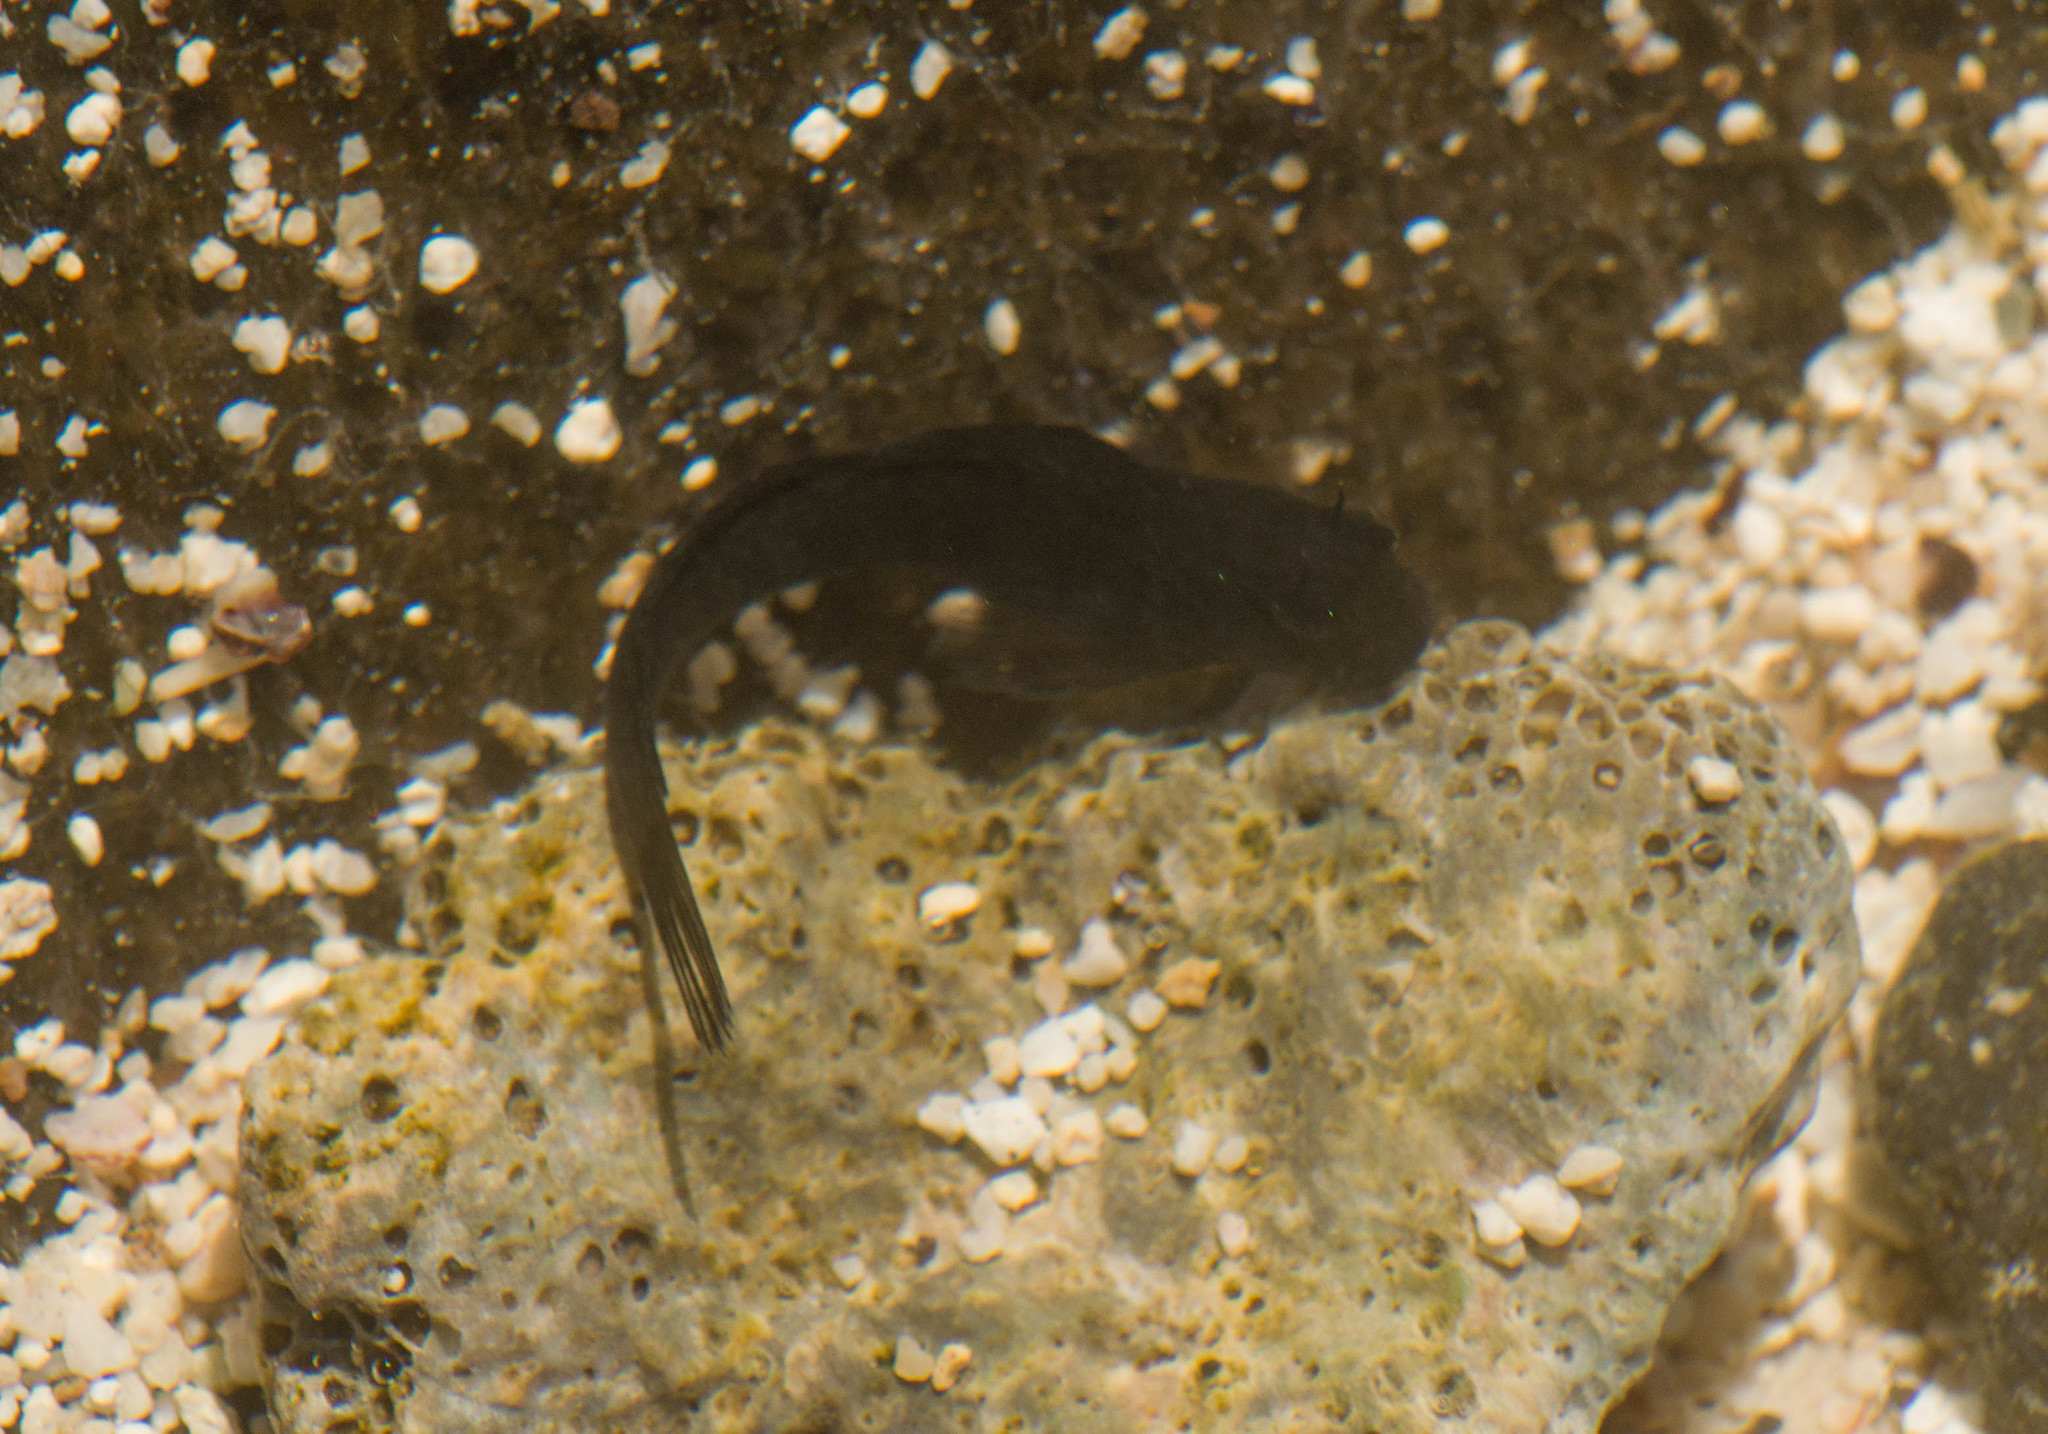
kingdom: Animalia
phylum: Chordata
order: Perciformes
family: Blenniidae
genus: Istiblennius
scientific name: Istiblennius zebra
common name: Zebra blenny
